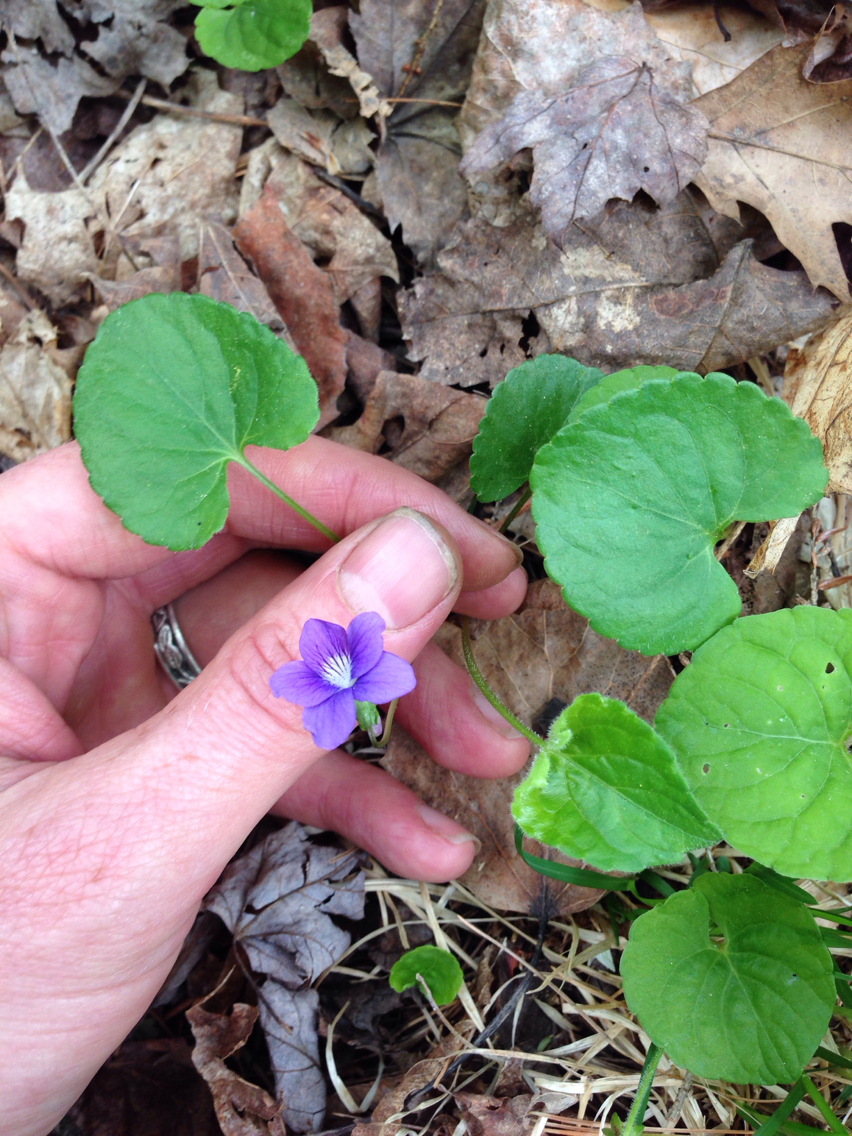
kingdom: Plantae
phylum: Tracheophyta
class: Magnoliopsida
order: Malpighiales
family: Violaceae
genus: Viola
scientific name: Viola sororia
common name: Dooryard violet
